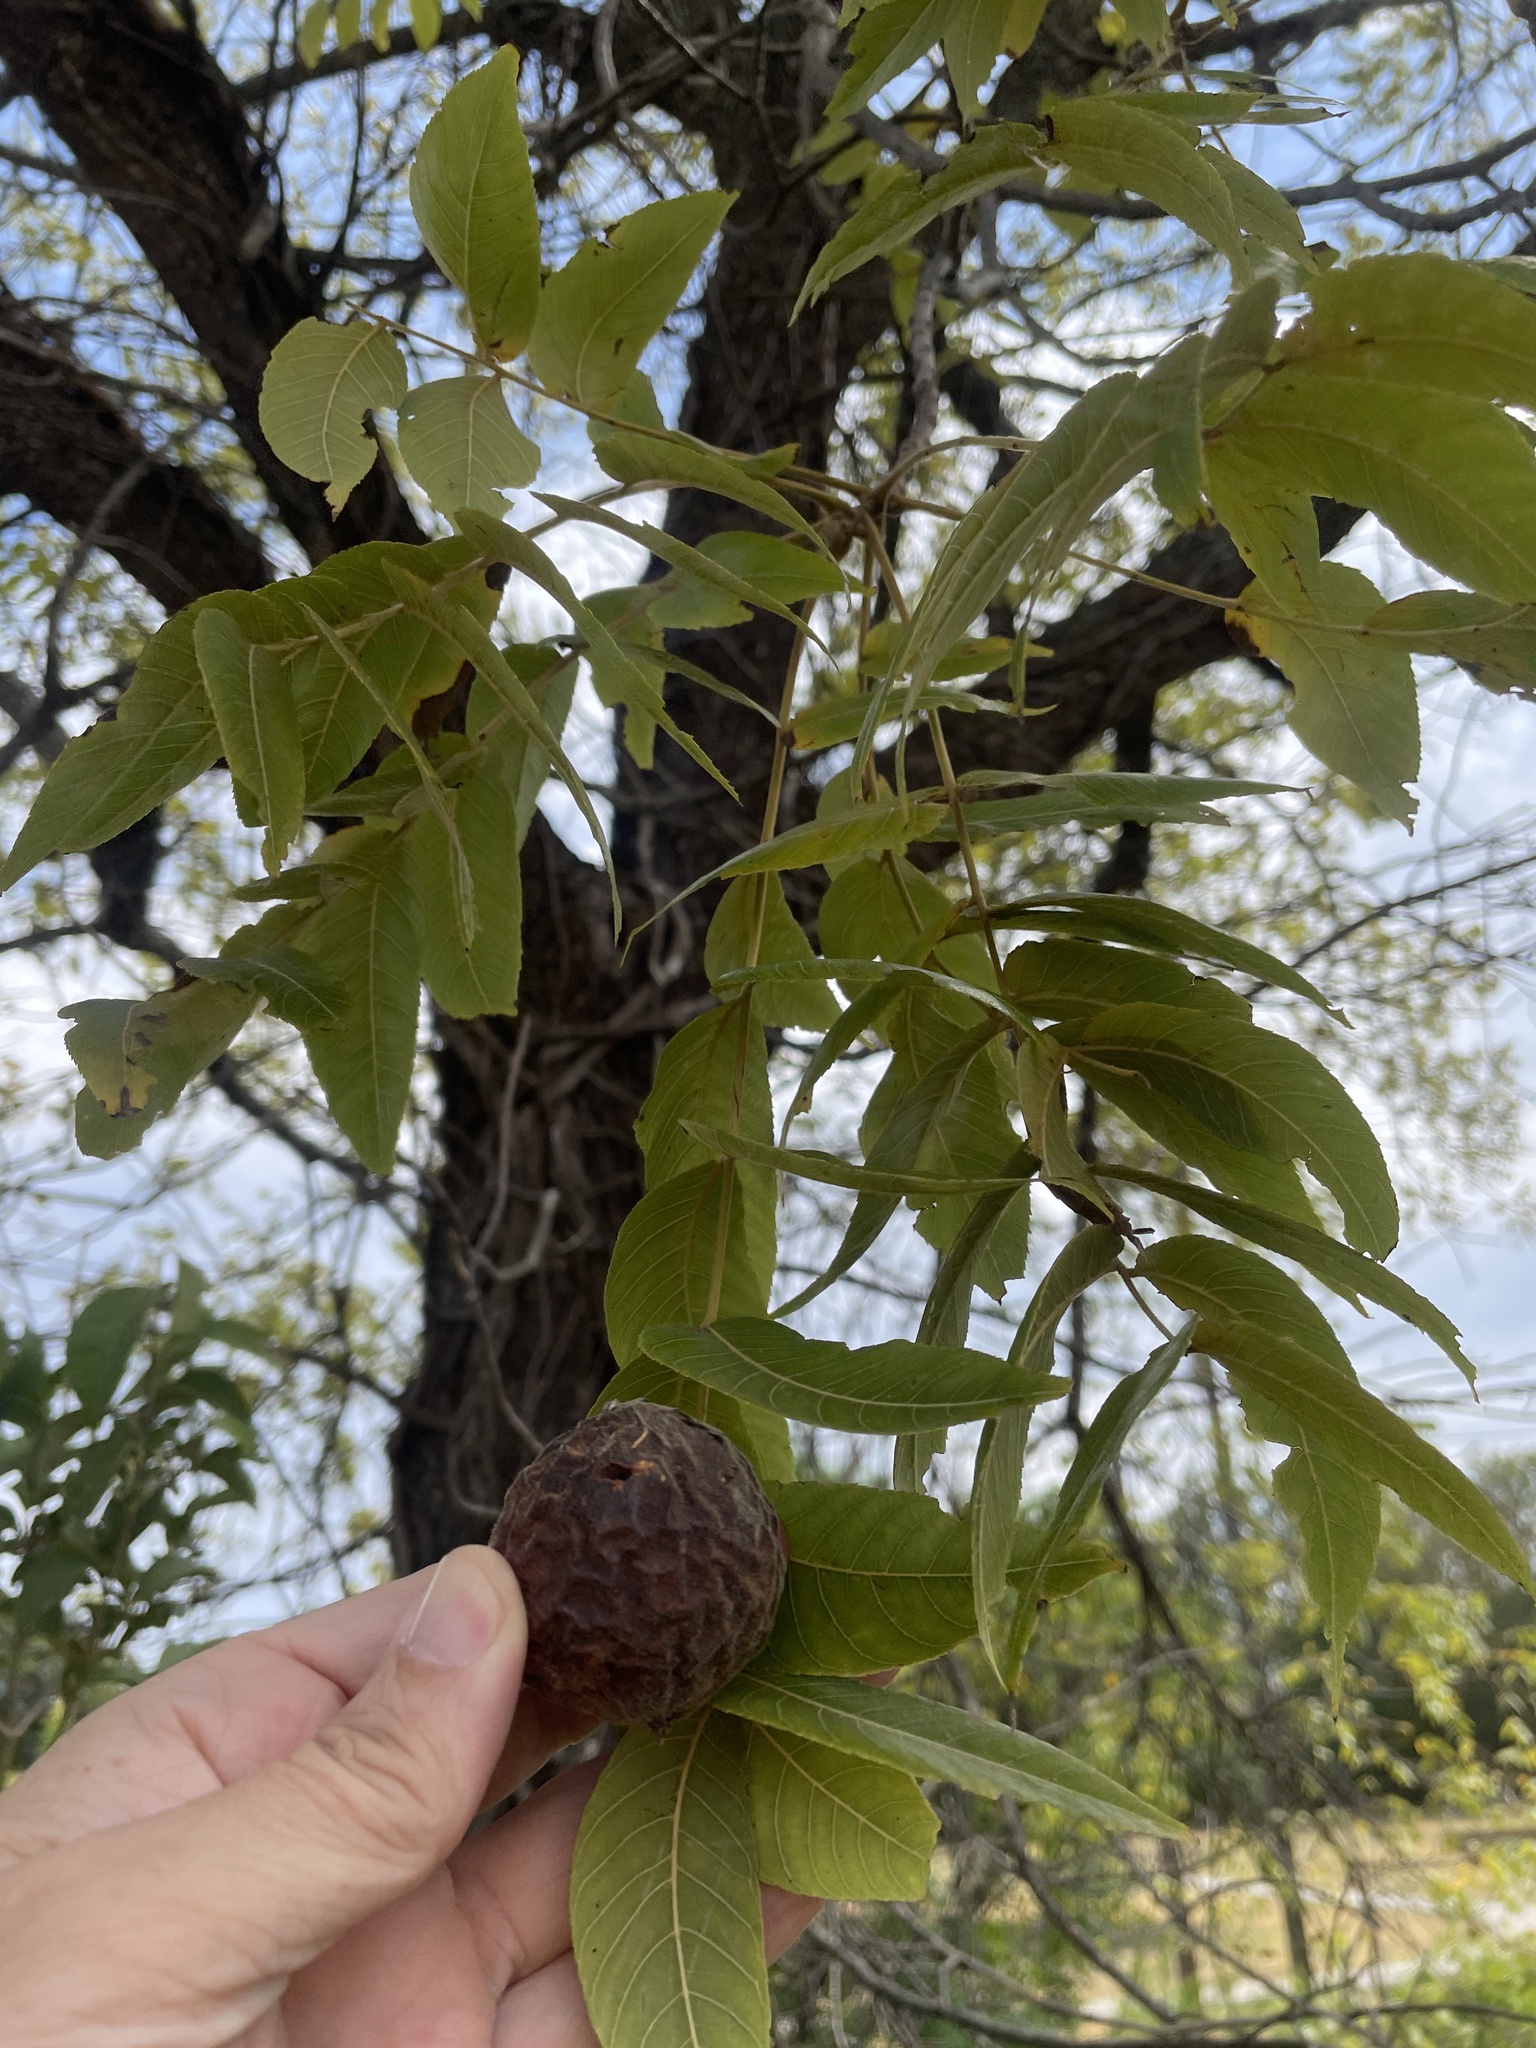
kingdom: Plantae
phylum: Tracheophyta
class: Magnoliopsida
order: Fagales
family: Juglandaceae
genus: Juglans
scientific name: Juglans nigra
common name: Black walnut
